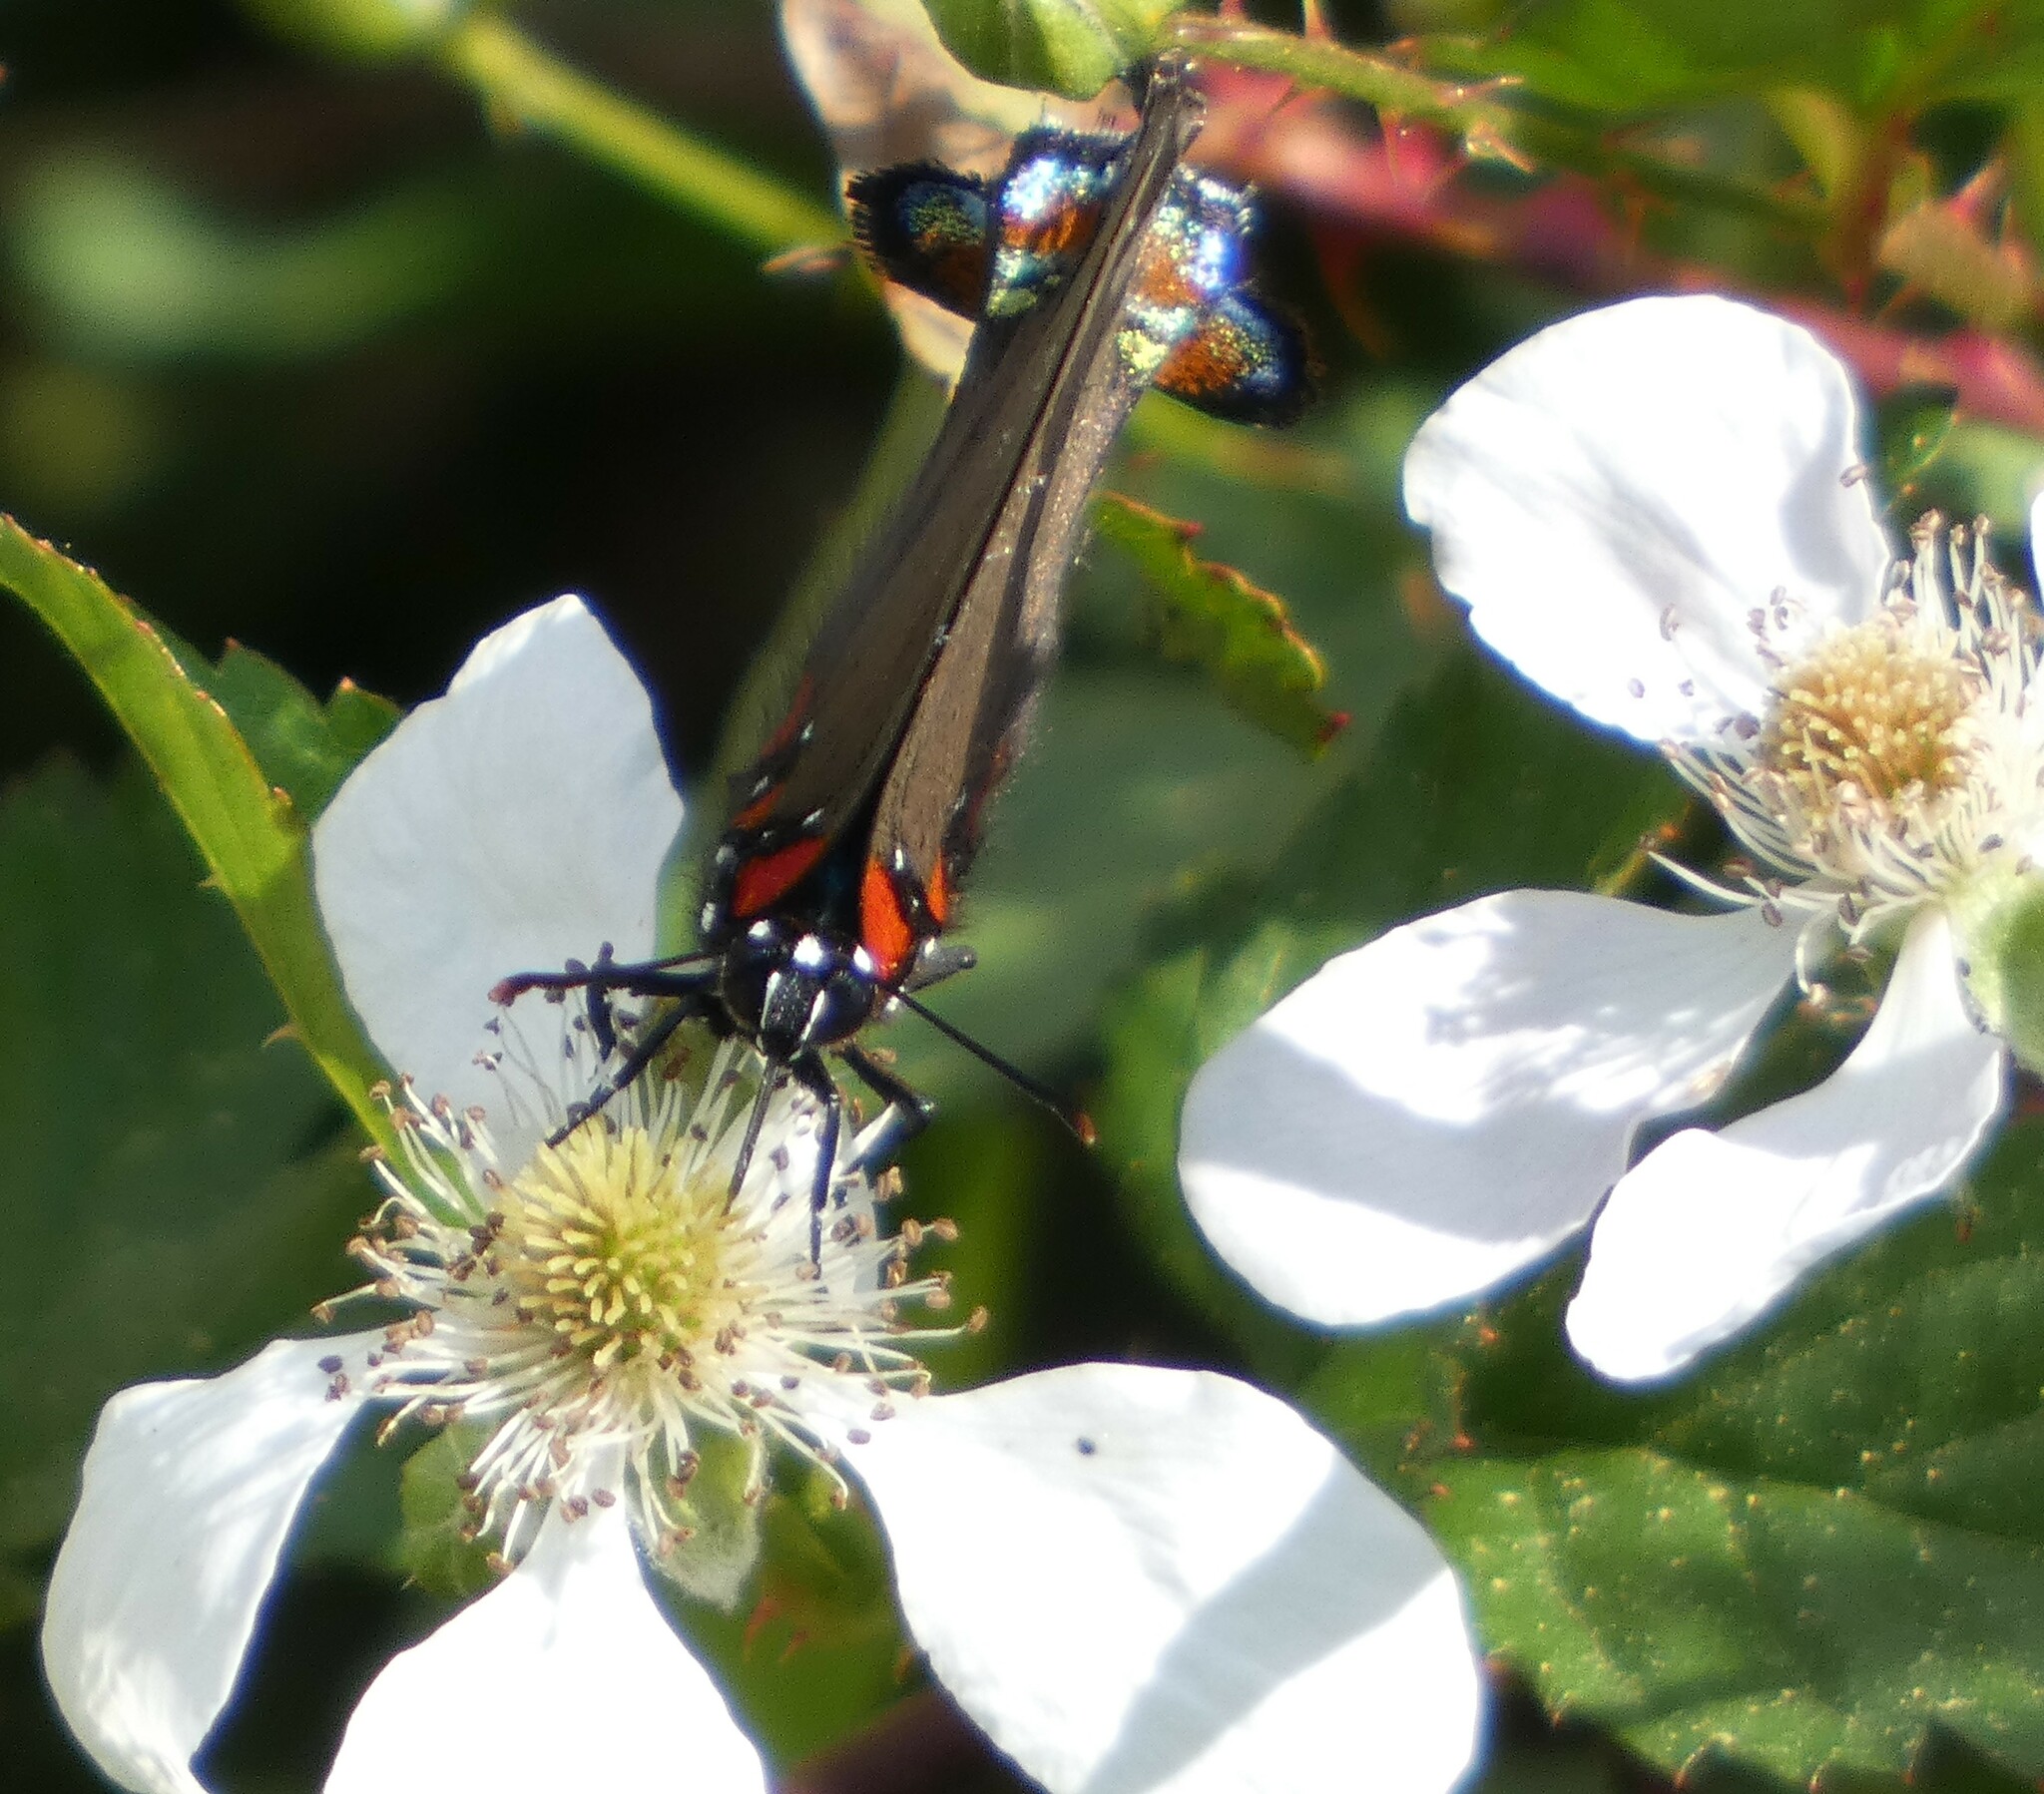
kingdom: Animalia
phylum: Arthropoda
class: Insecta
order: Lepidoptera
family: Lycaenidae
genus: Atlides
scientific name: Atlides halesus
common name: Great purple hairstreak
